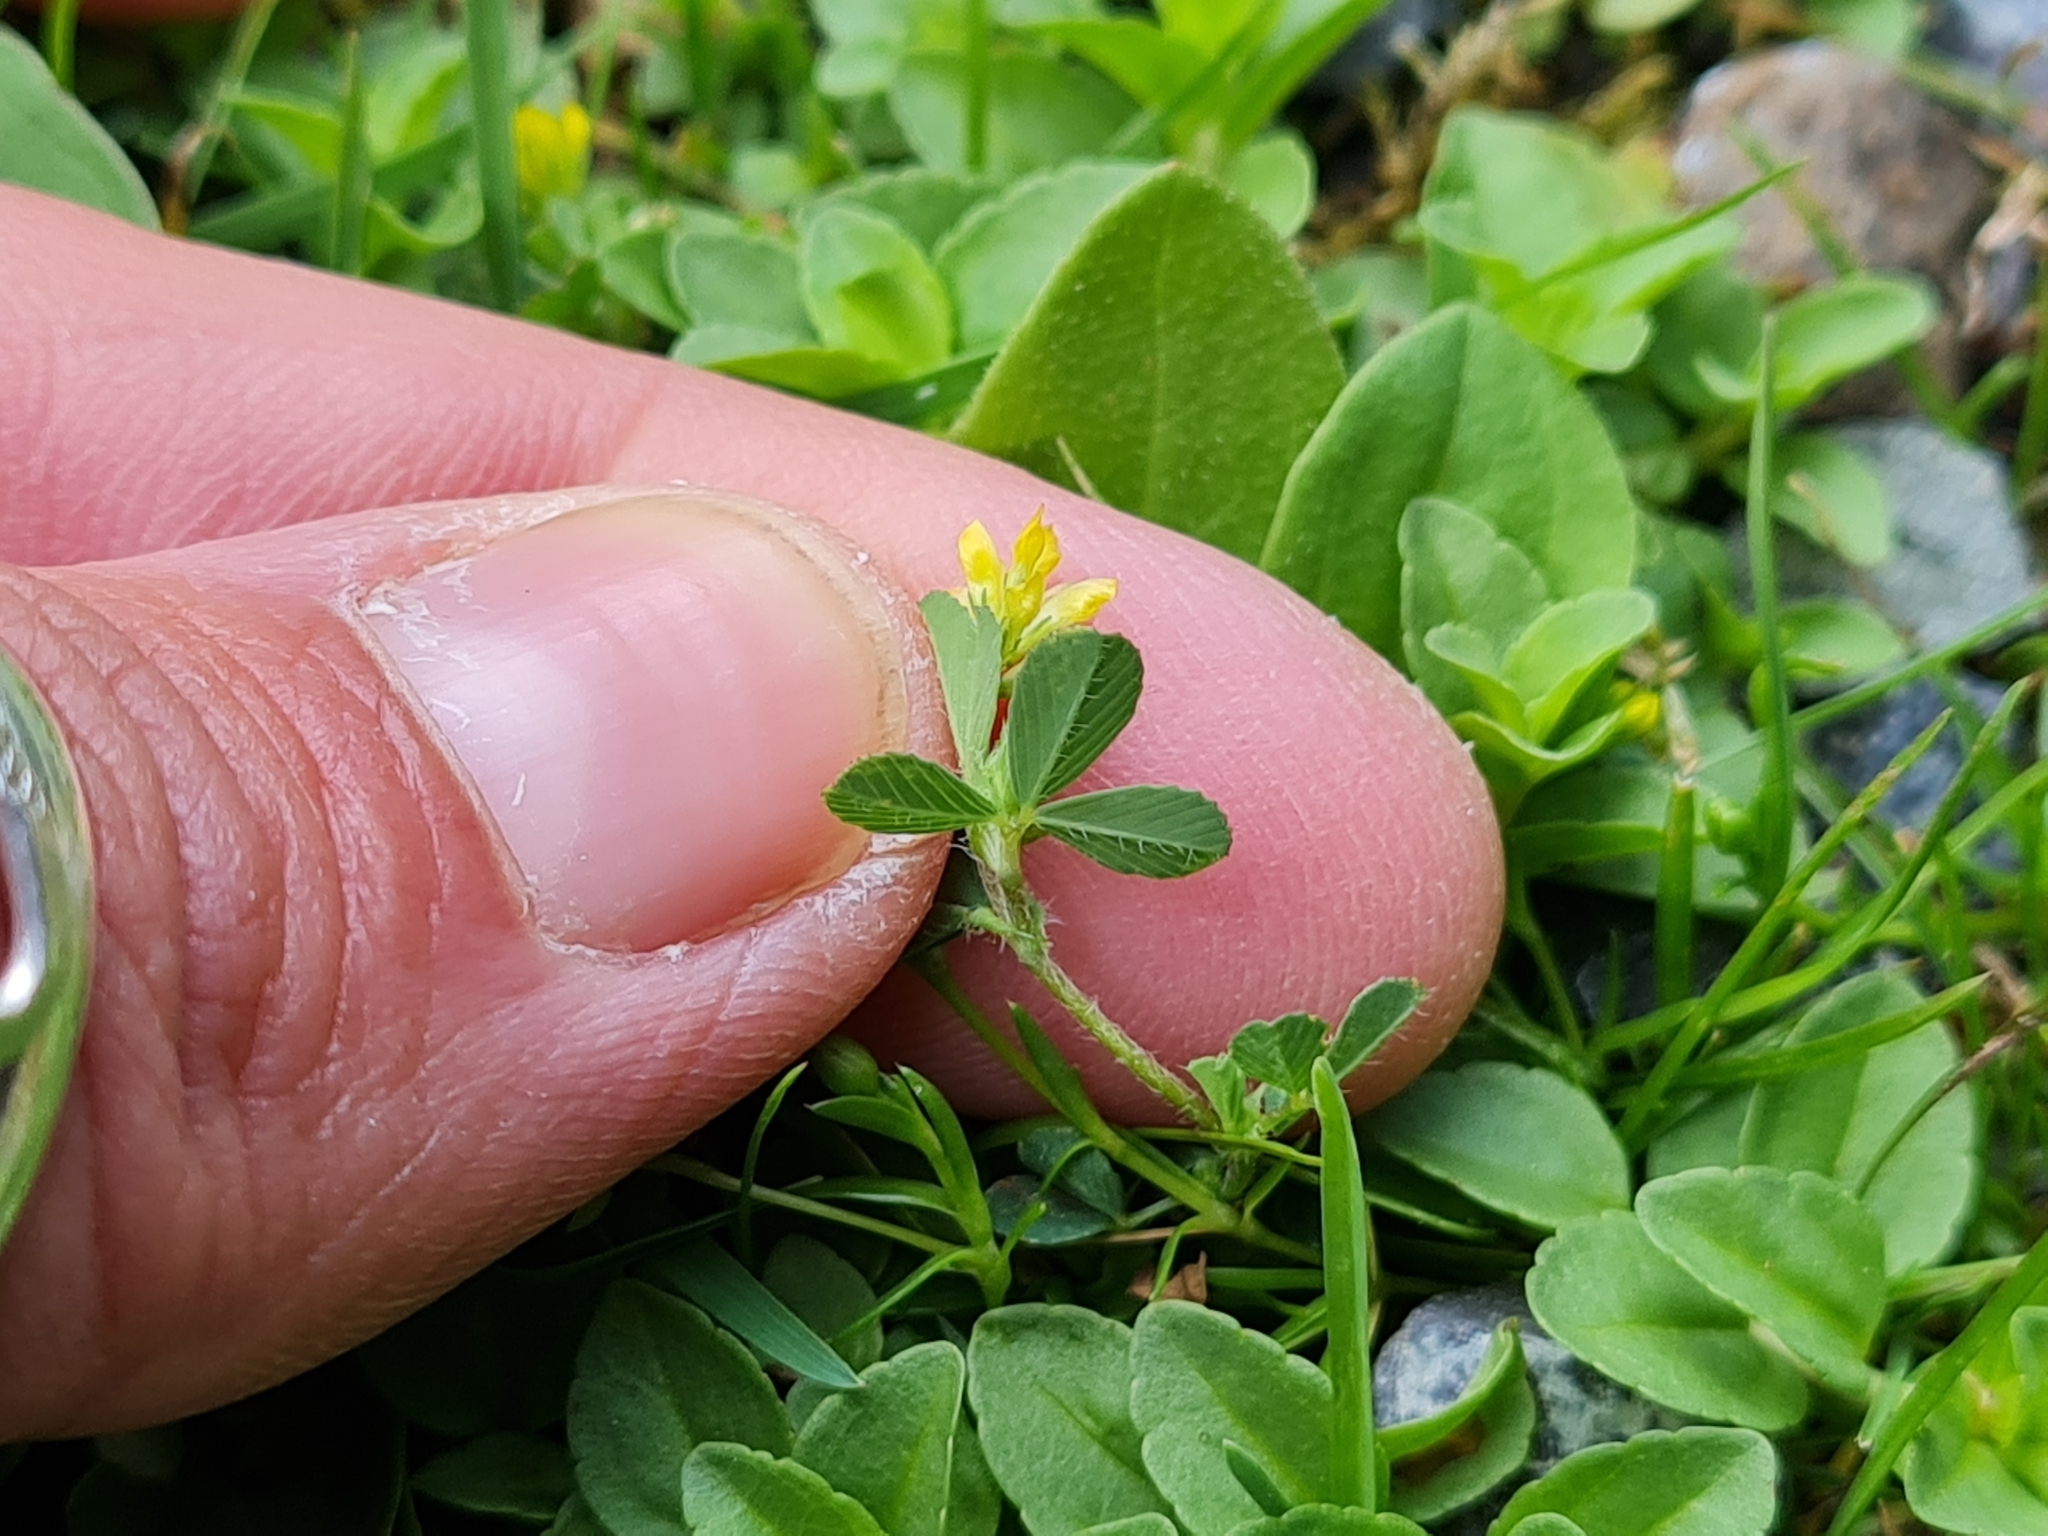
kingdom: Plantae
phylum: Tracheophyta
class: Magnoliopsida
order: Fabales
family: Fabaceae
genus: Trifolium
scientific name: Trifolium dubium
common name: Suckling clover
